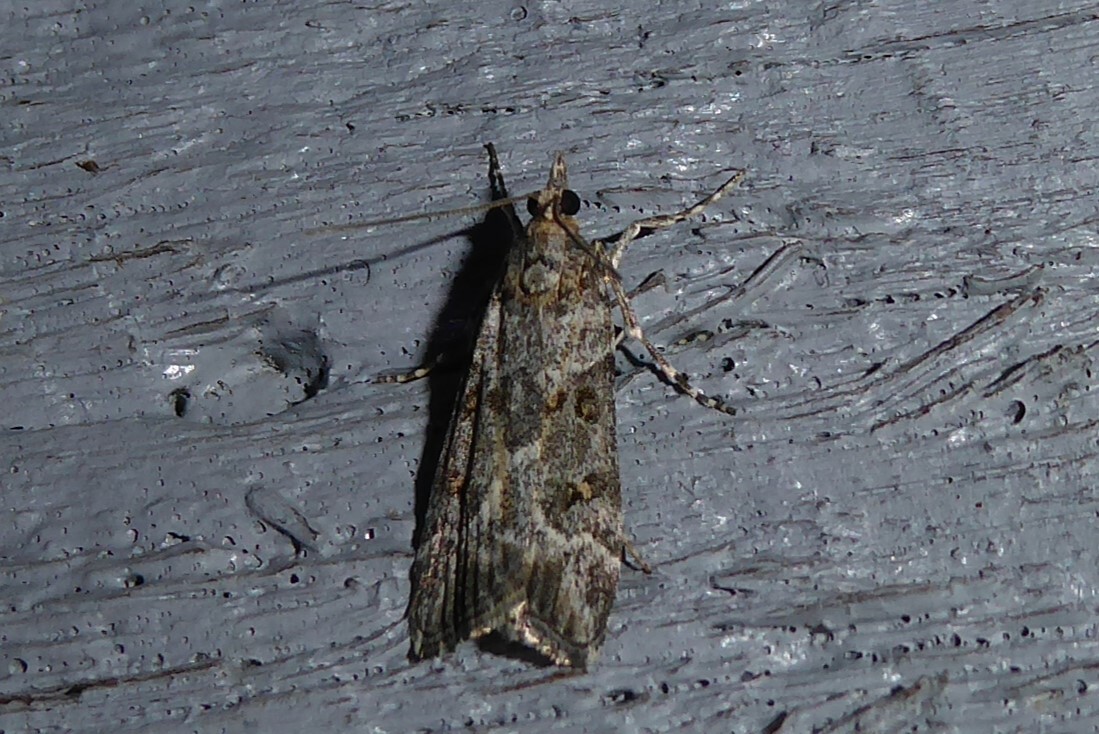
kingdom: Animalia
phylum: Arthropoda
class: Insecta
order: Lepidoptera
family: Crambidae
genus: Scoparia
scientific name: Scoparia tetracycla
